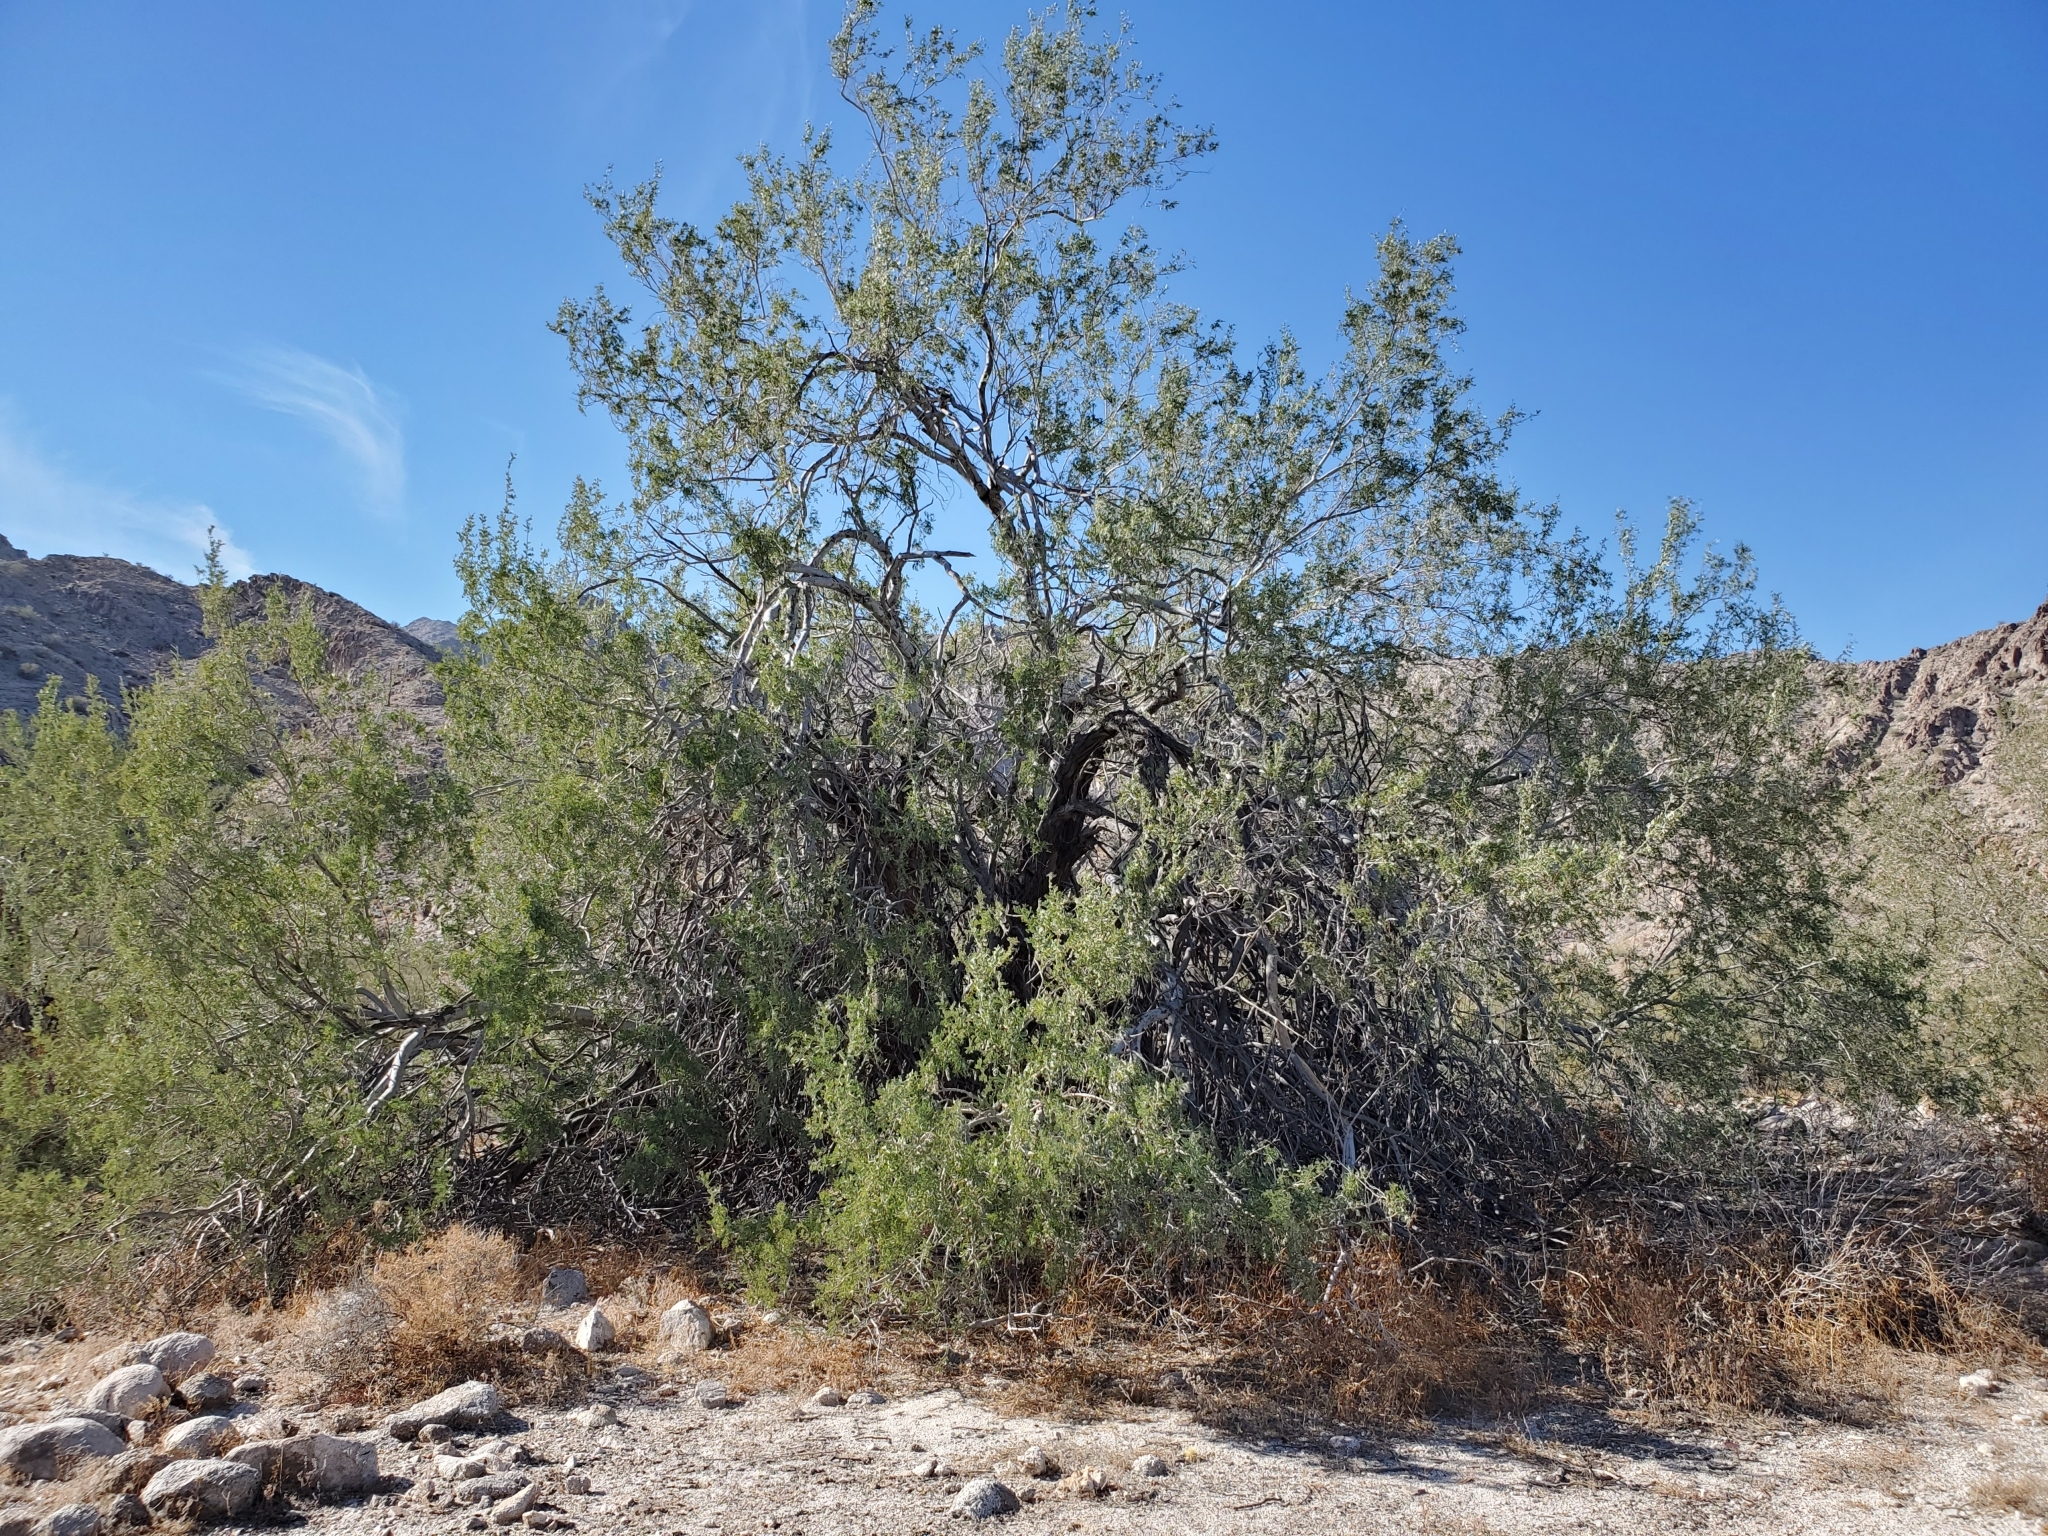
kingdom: Plantae
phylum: Tracheophyta
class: Magnoliopsida
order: Fabales
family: Fabaceae
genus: Olneya
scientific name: Olneya tesota
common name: Desert ironwood
